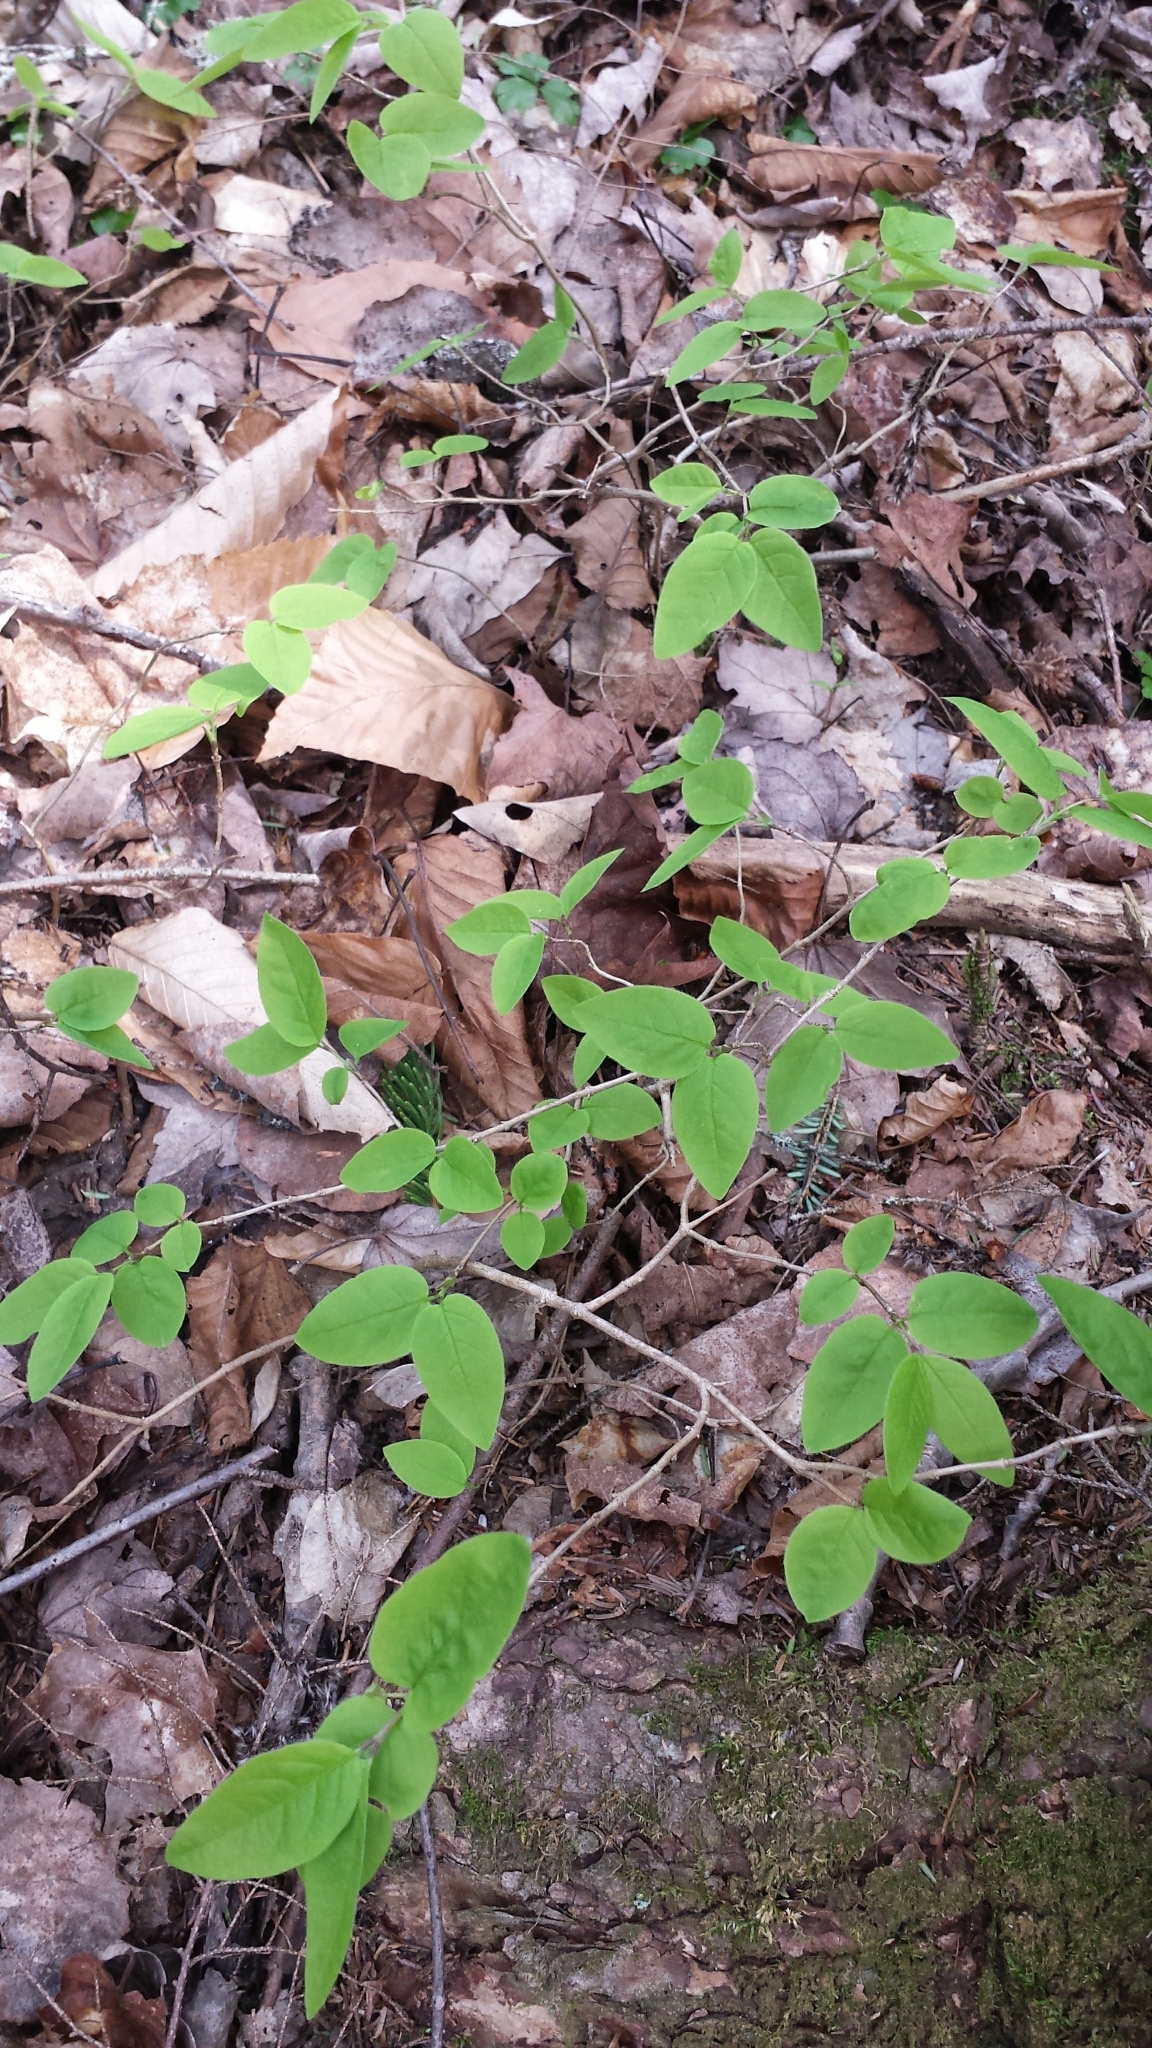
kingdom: Plantae
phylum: Tracheophyta
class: Magnoliopsida
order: Dipsacales
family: Caprifoliaceae
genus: Lonicera
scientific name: Lonicera canadensis
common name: American fly-honeysuckle
